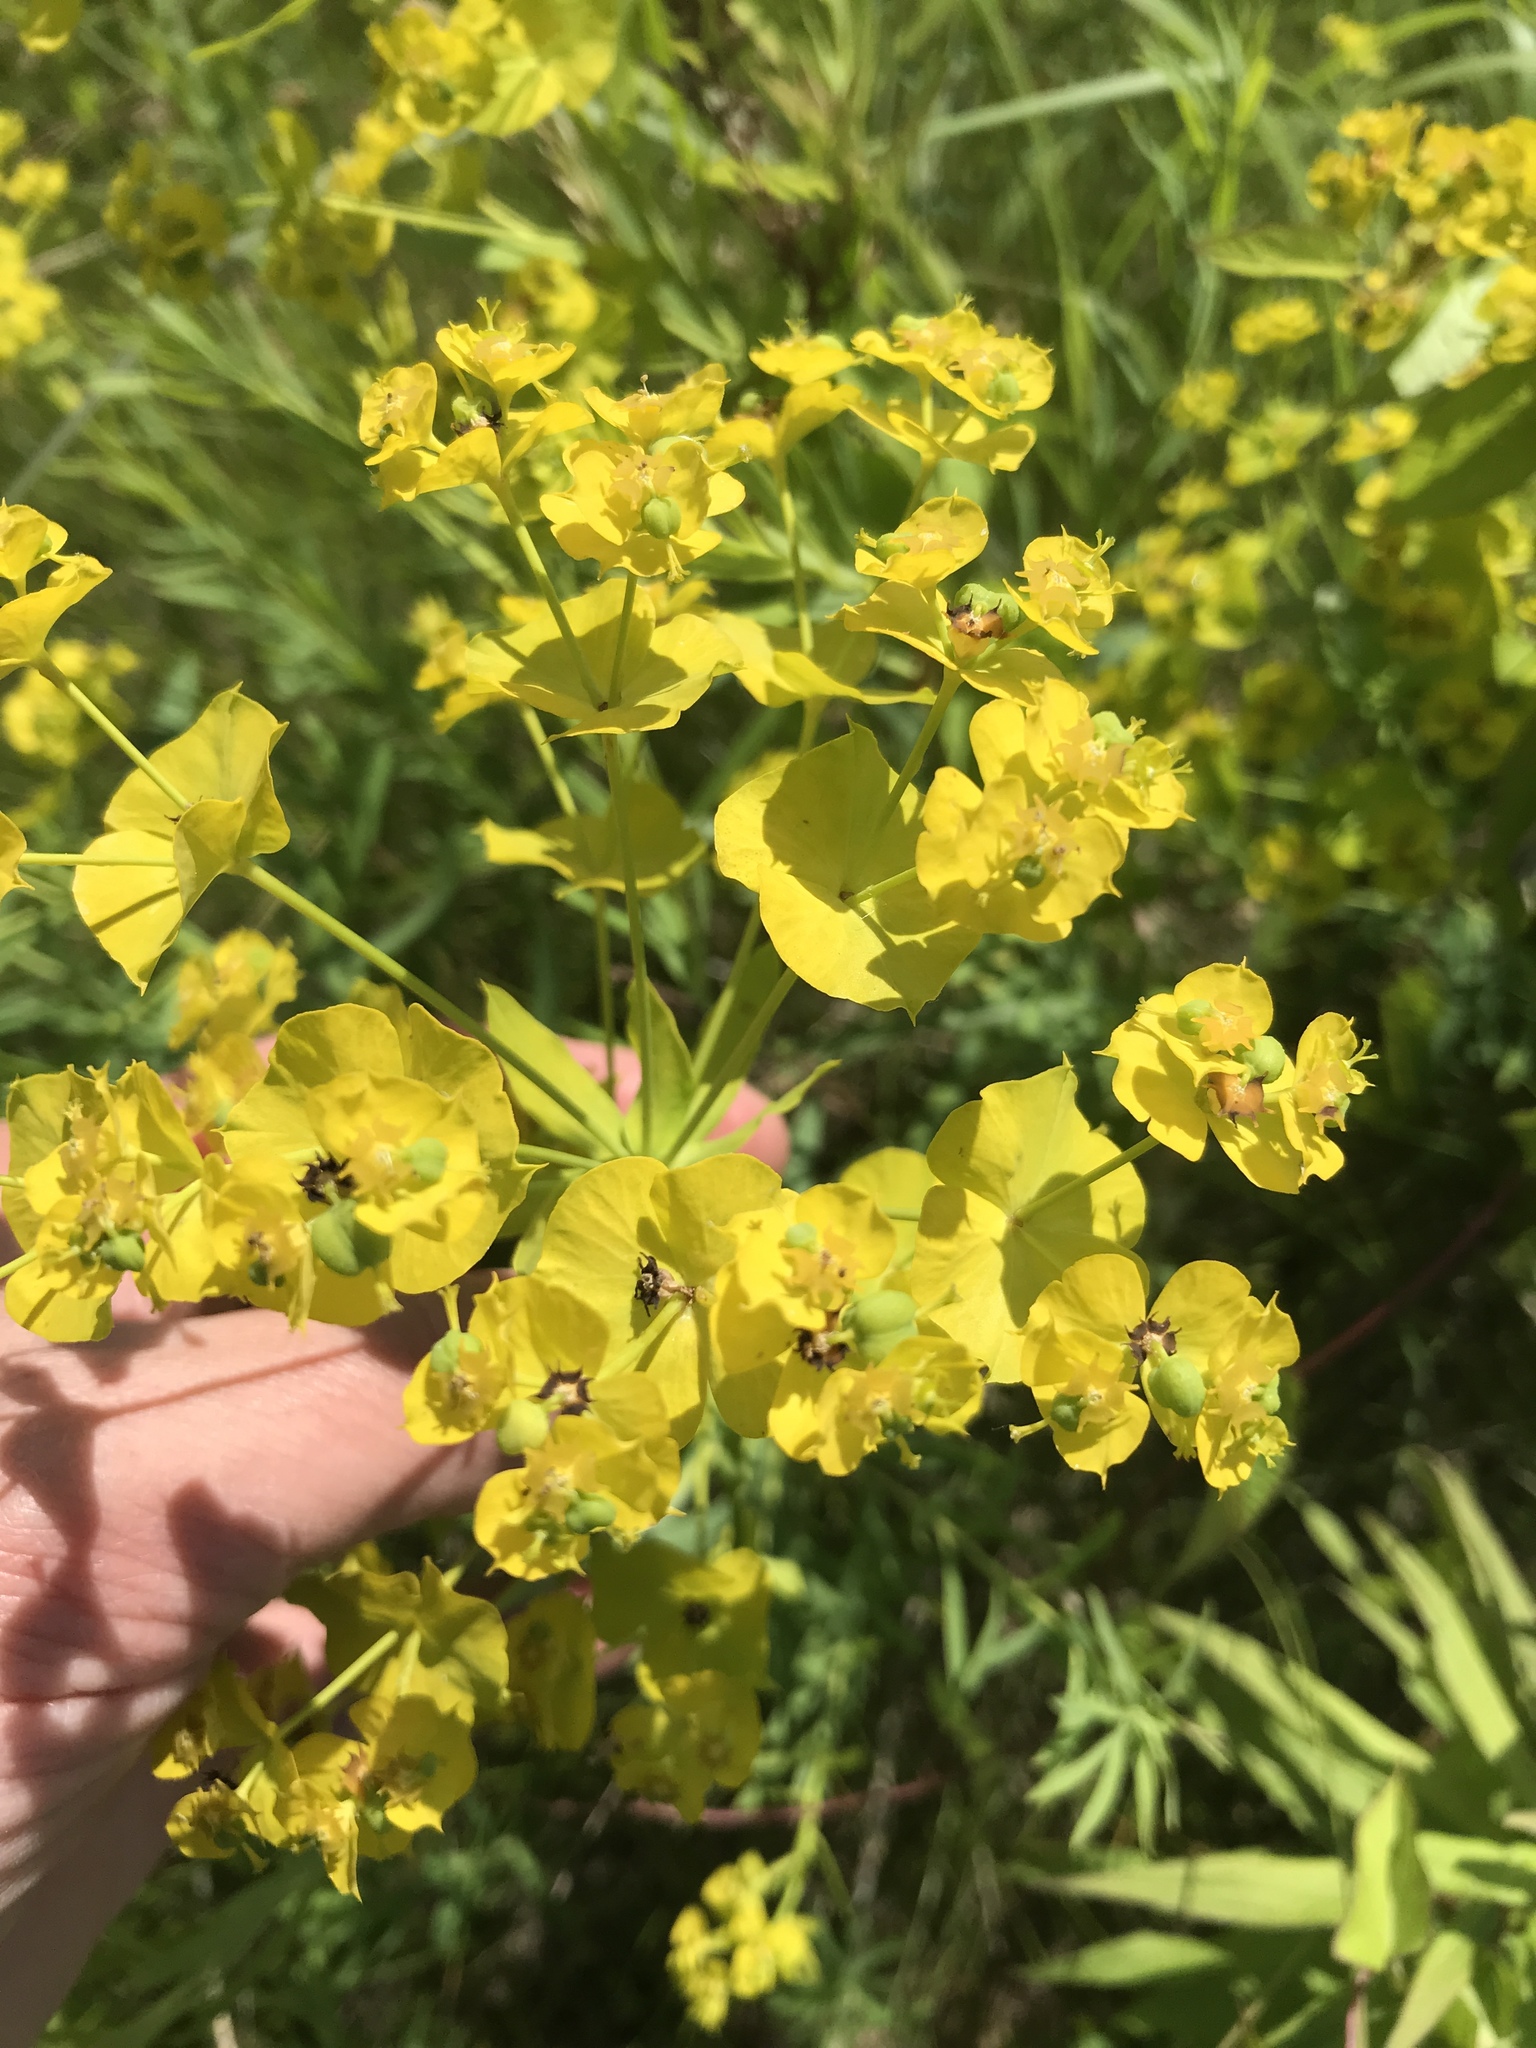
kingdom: Plantae
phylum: Tracheophyta
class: Magnoliopsida
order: Malpighiales
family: Euphorbiaceae
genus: Euphorbia
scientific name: Euphorbia virgata
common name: Leafy spurge
